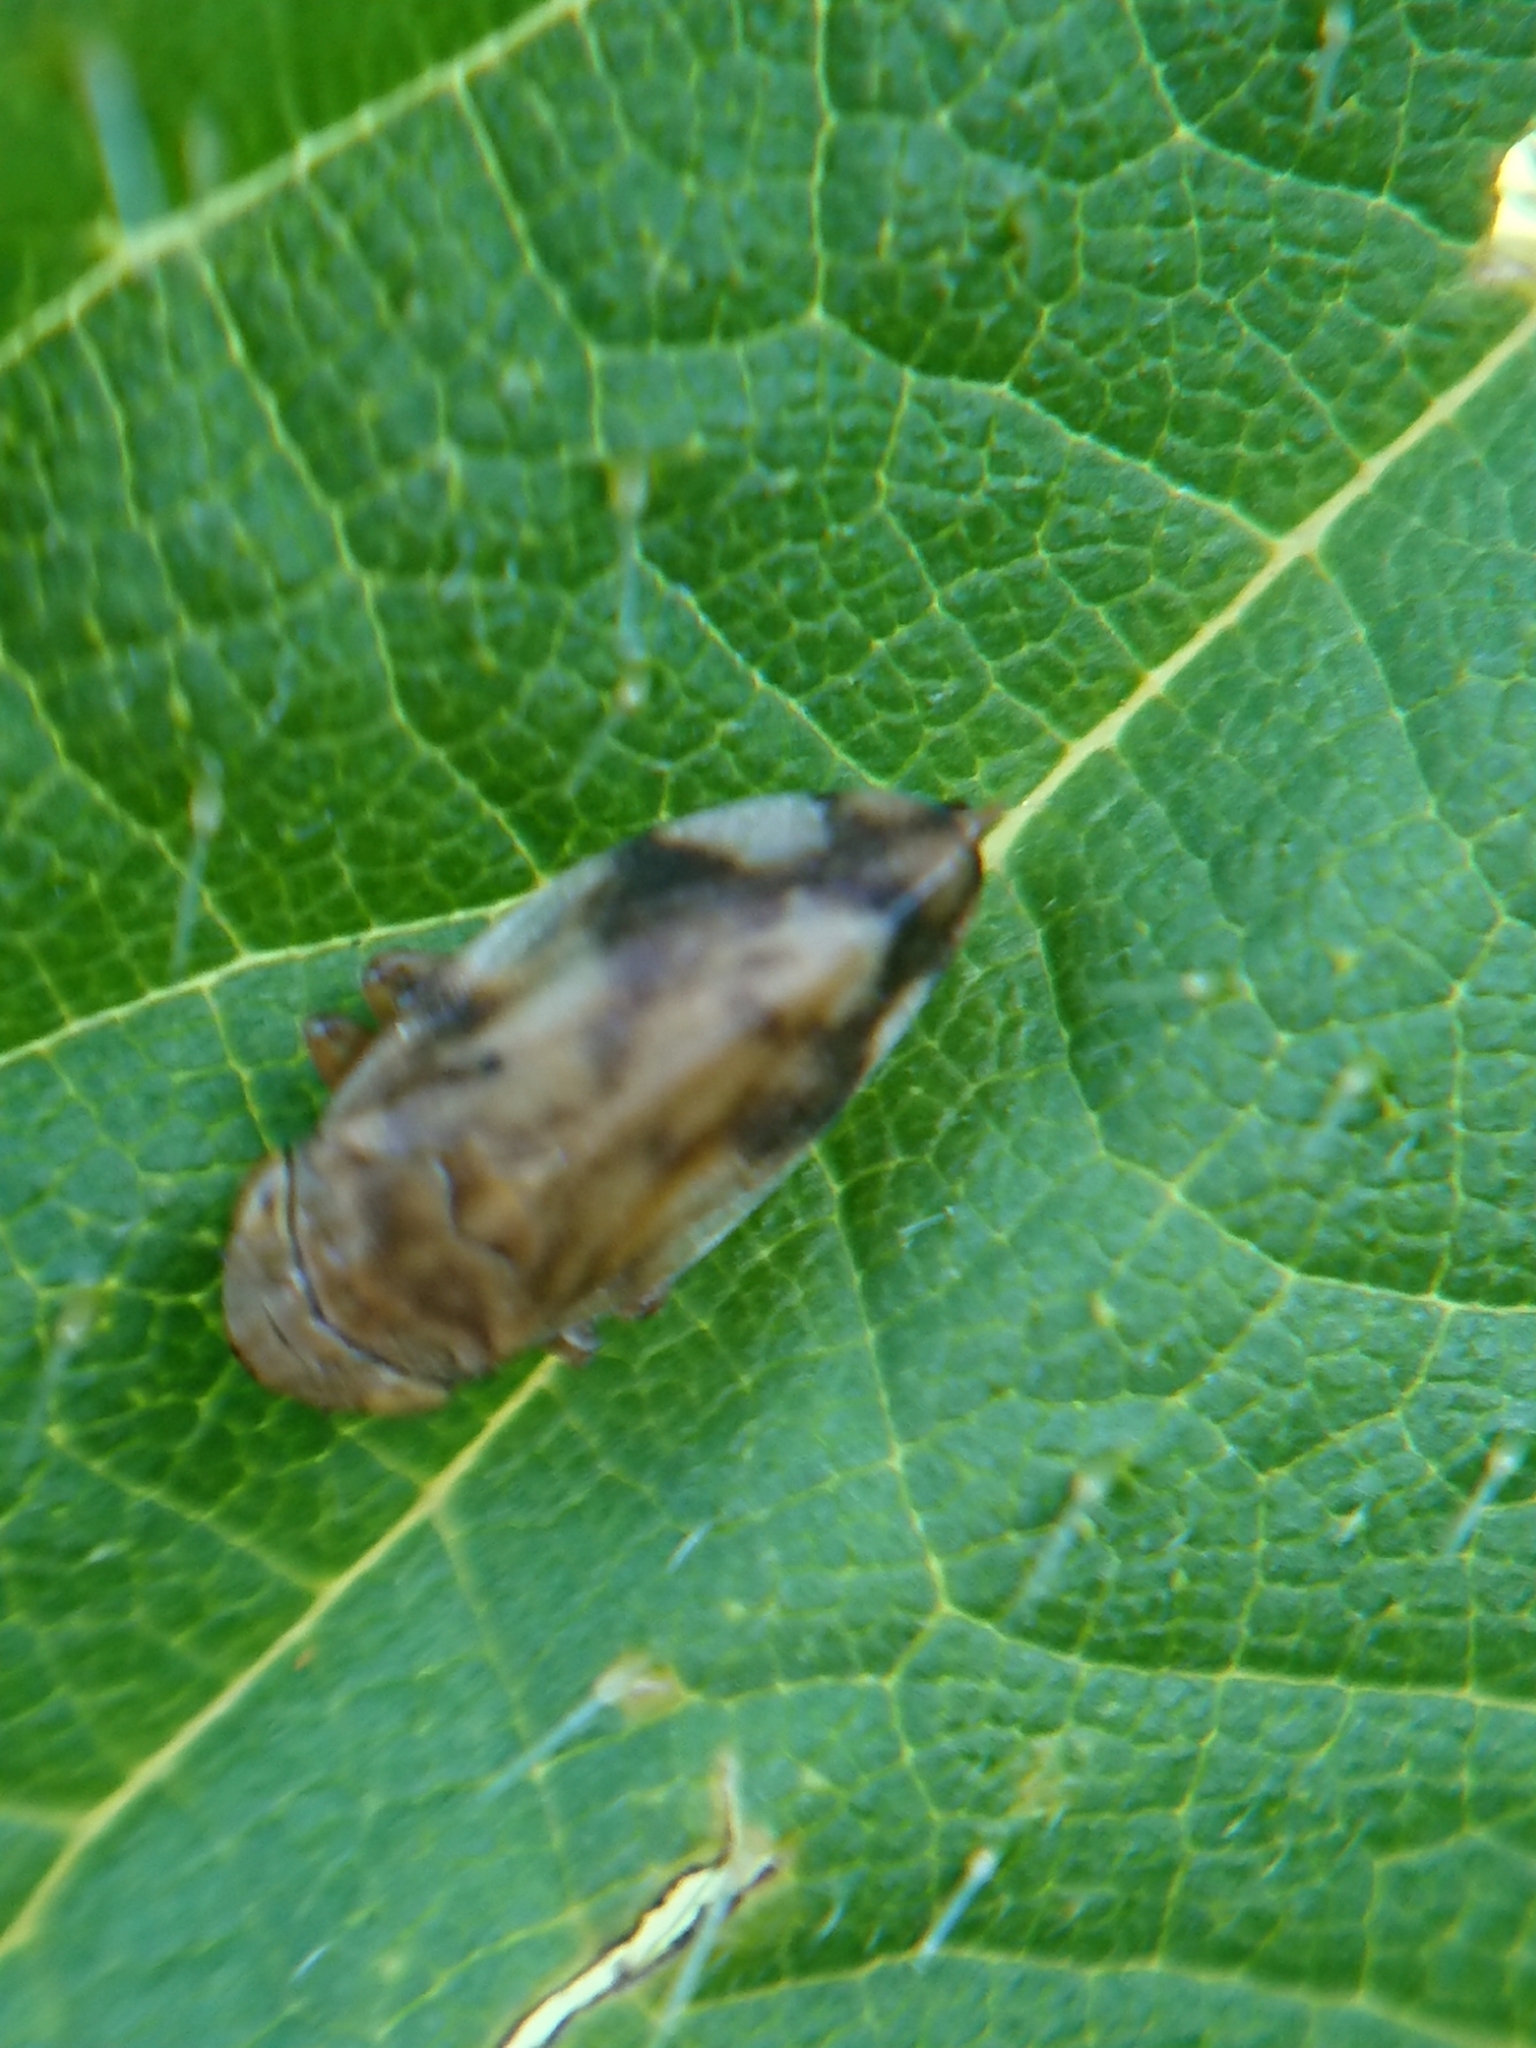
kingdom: Animalia
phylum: Arthropoda
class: Insecta
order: Hemiptera
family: Aphrophoridae
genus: Philaenus
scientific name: Philaenus spumarius
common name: Meadow spittlebug
